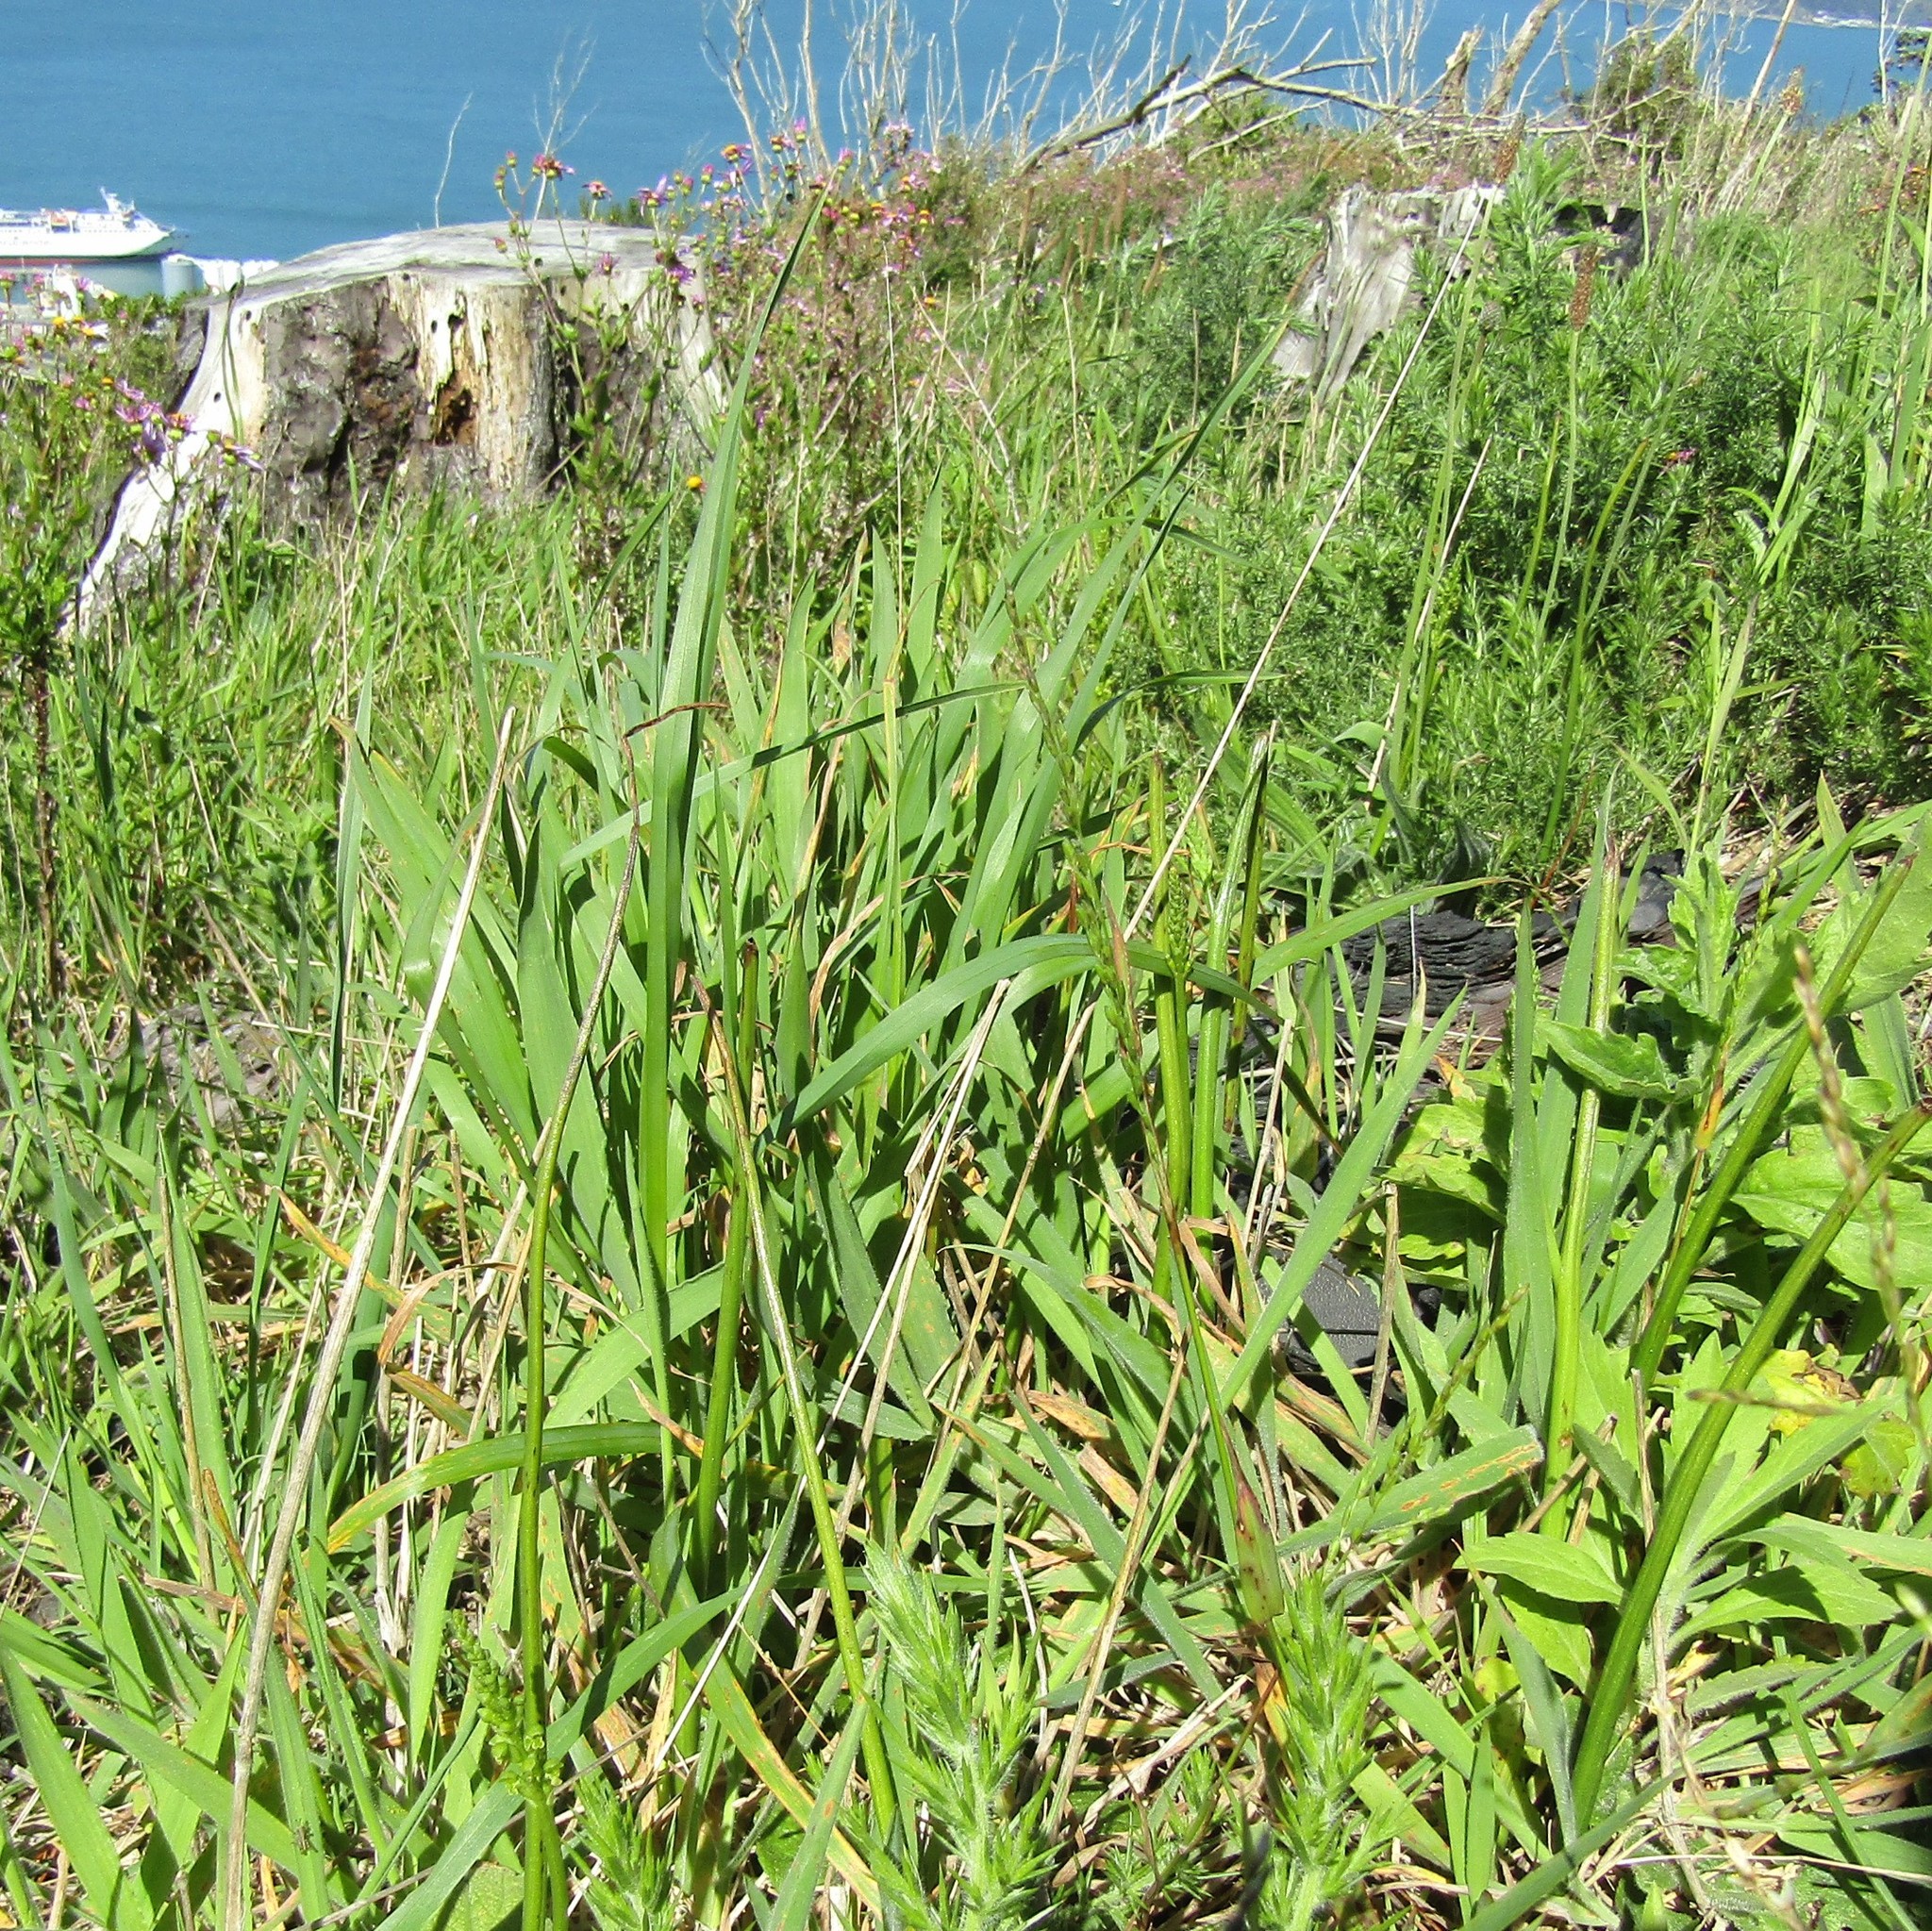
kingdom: Plantae
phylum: Tracheophyta
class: Liliopsida
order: Asparagales
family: Orchidaceae
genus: Microtis
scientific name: Microtis unifolia
